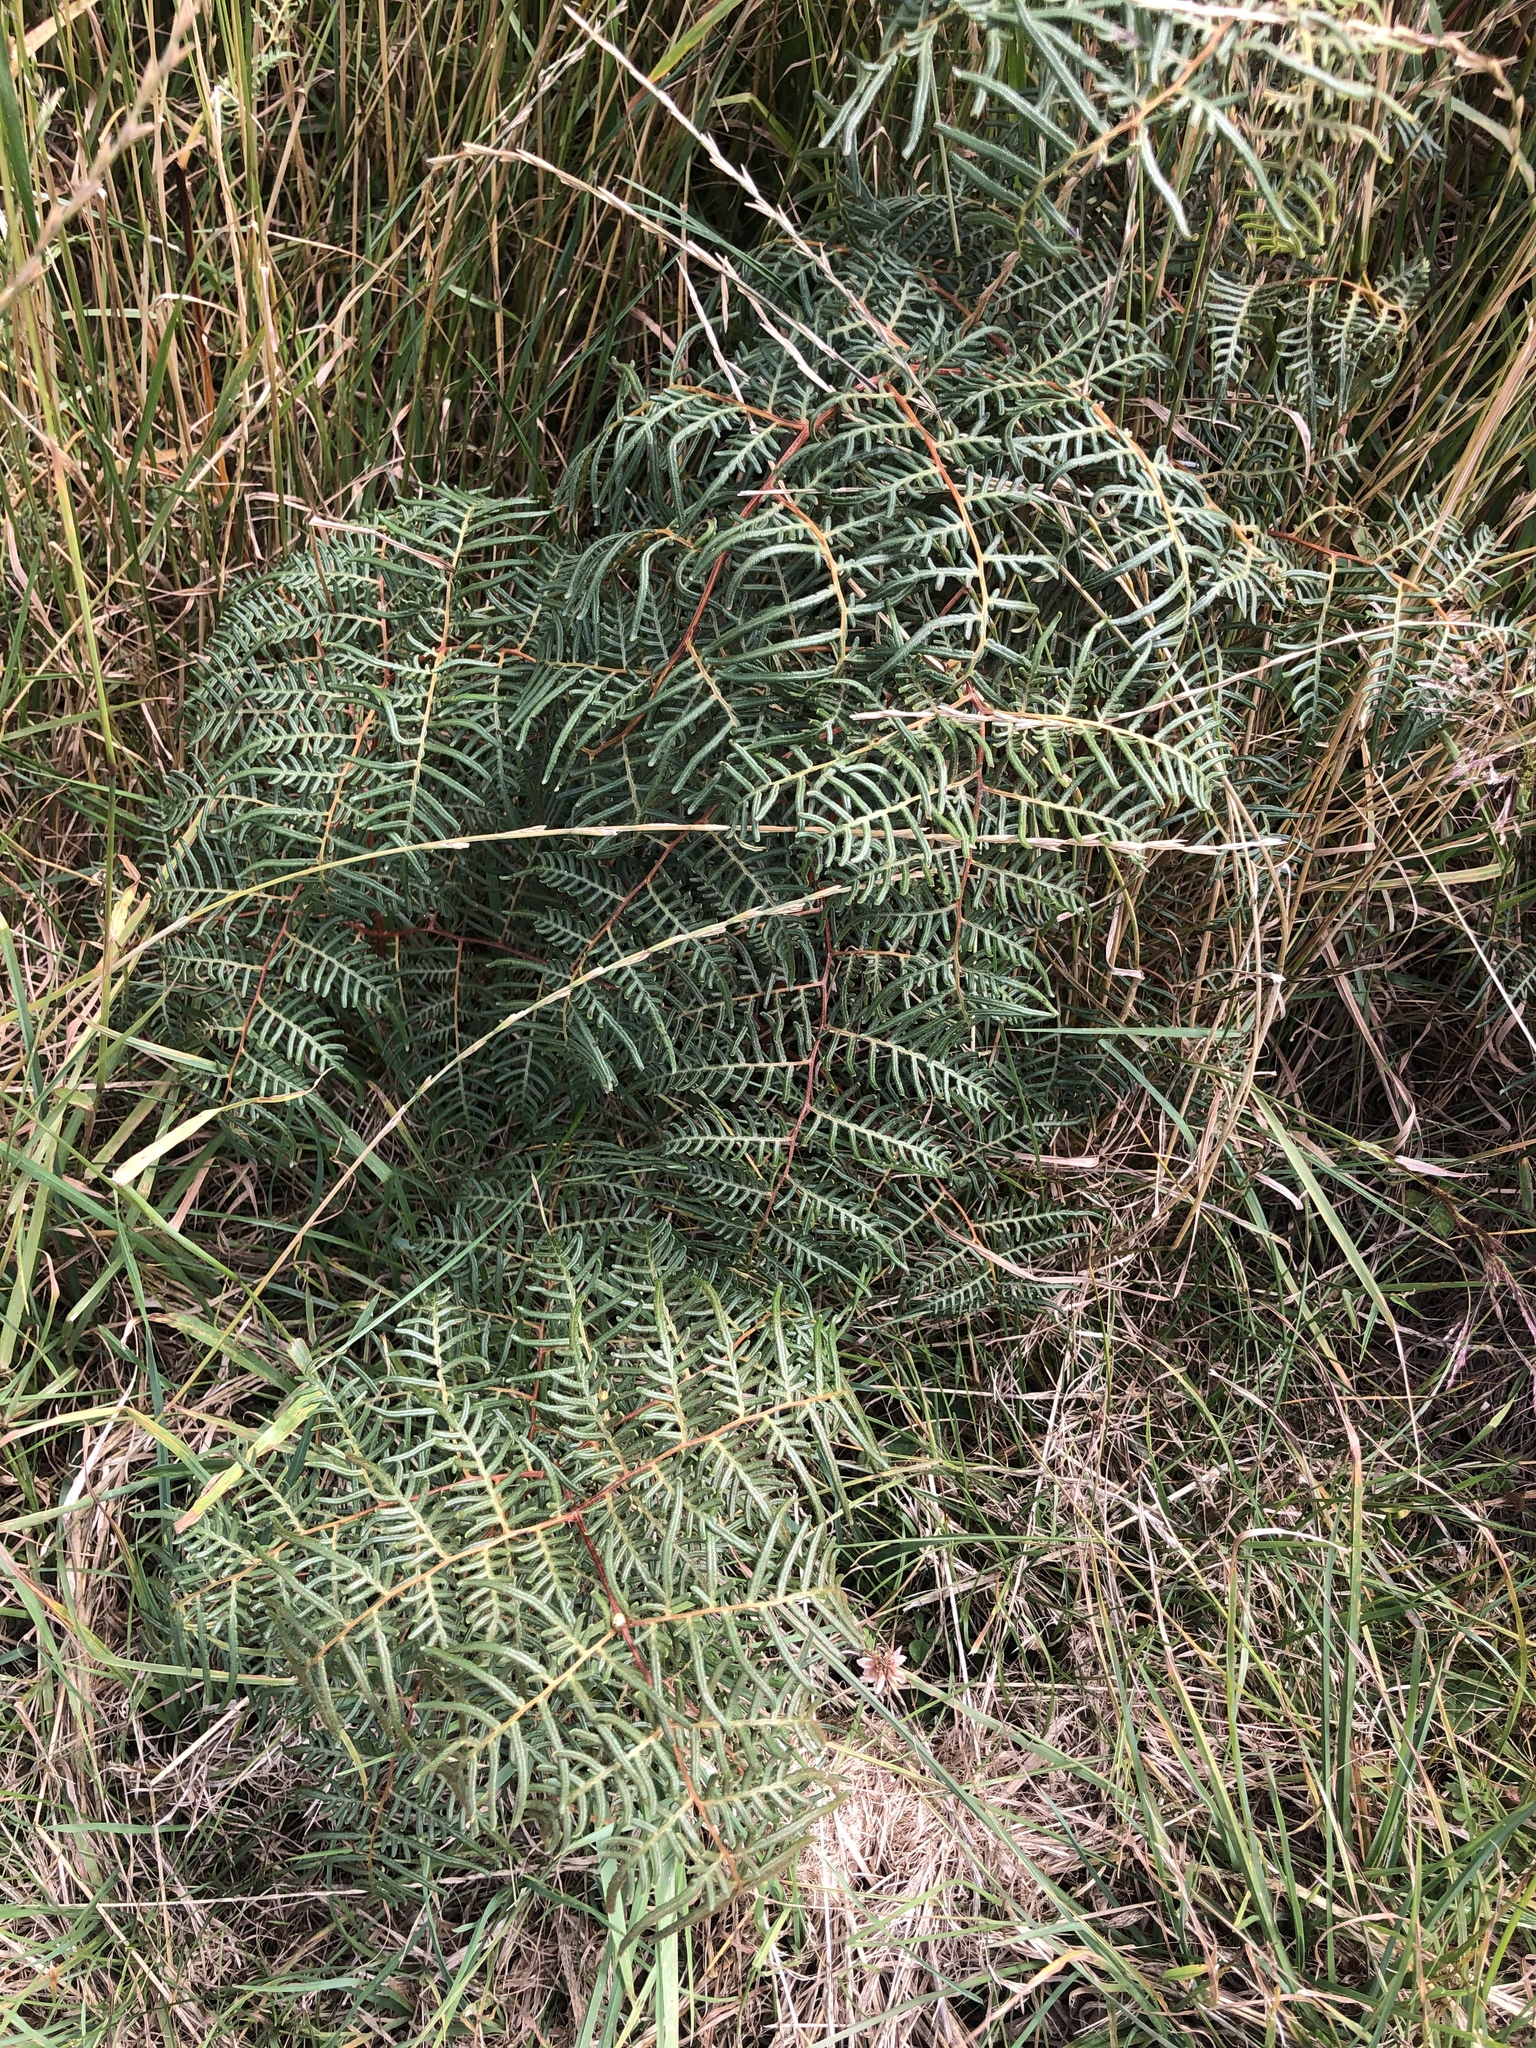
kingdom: Plantae
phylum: Tracheophyta
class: Polypodiopsida
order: Polypodiales
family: Dennstaedtiaceae
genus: Pteridium
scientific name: Pteridium esculentum
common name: Bracken fern
